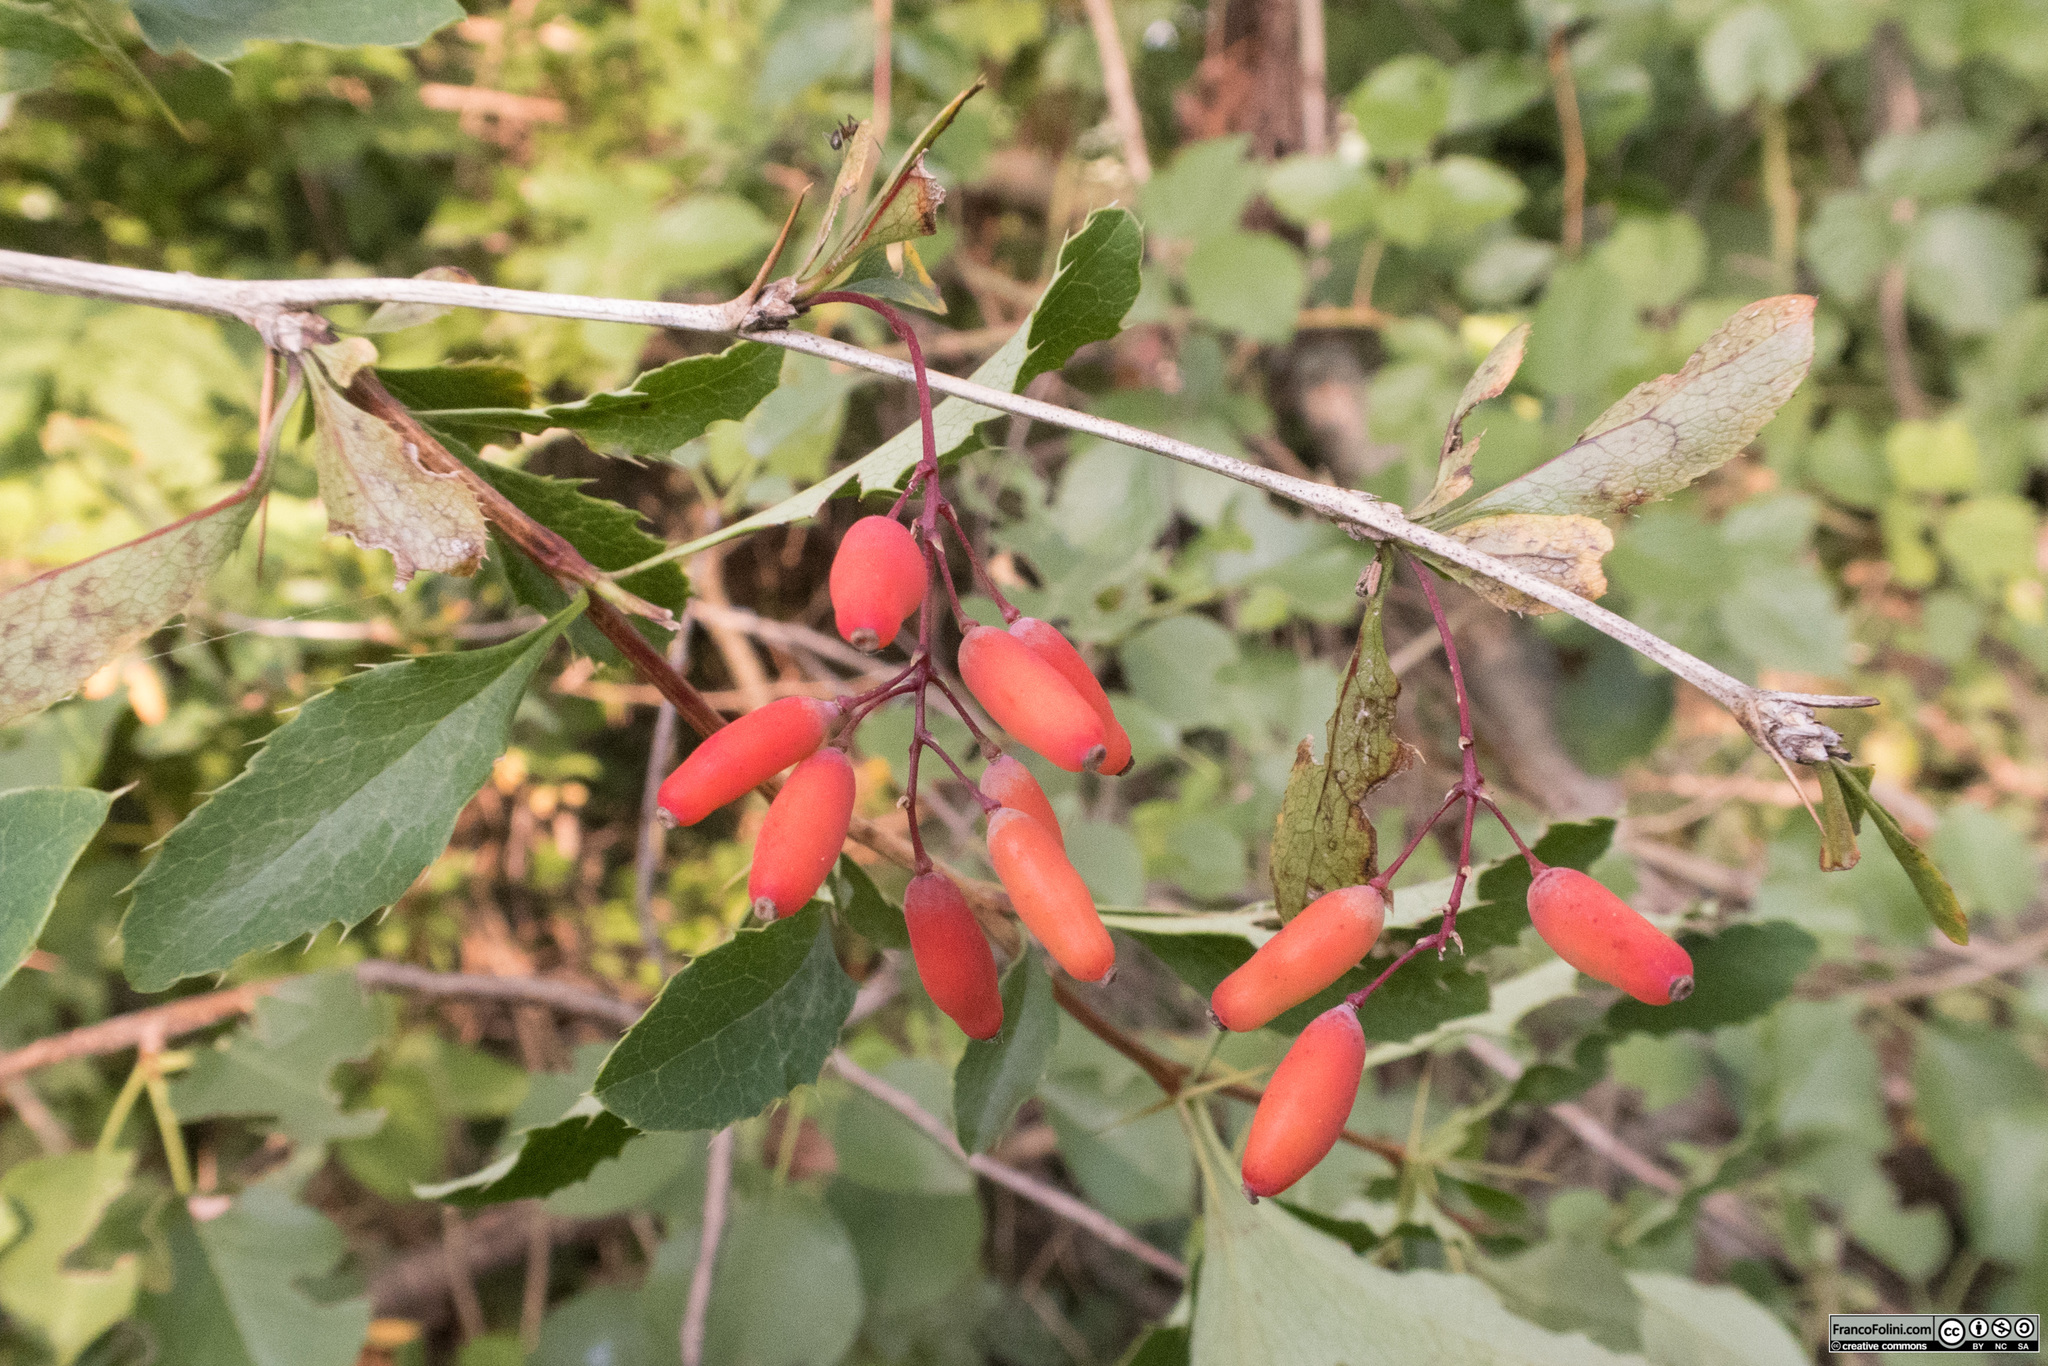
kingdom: Plantae
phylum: Tracheophyta
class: Magnoliopsida
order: Ranunculales
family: Berberidaceae
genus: Berberis
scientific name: Berberis vulgaris
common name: Barberry
